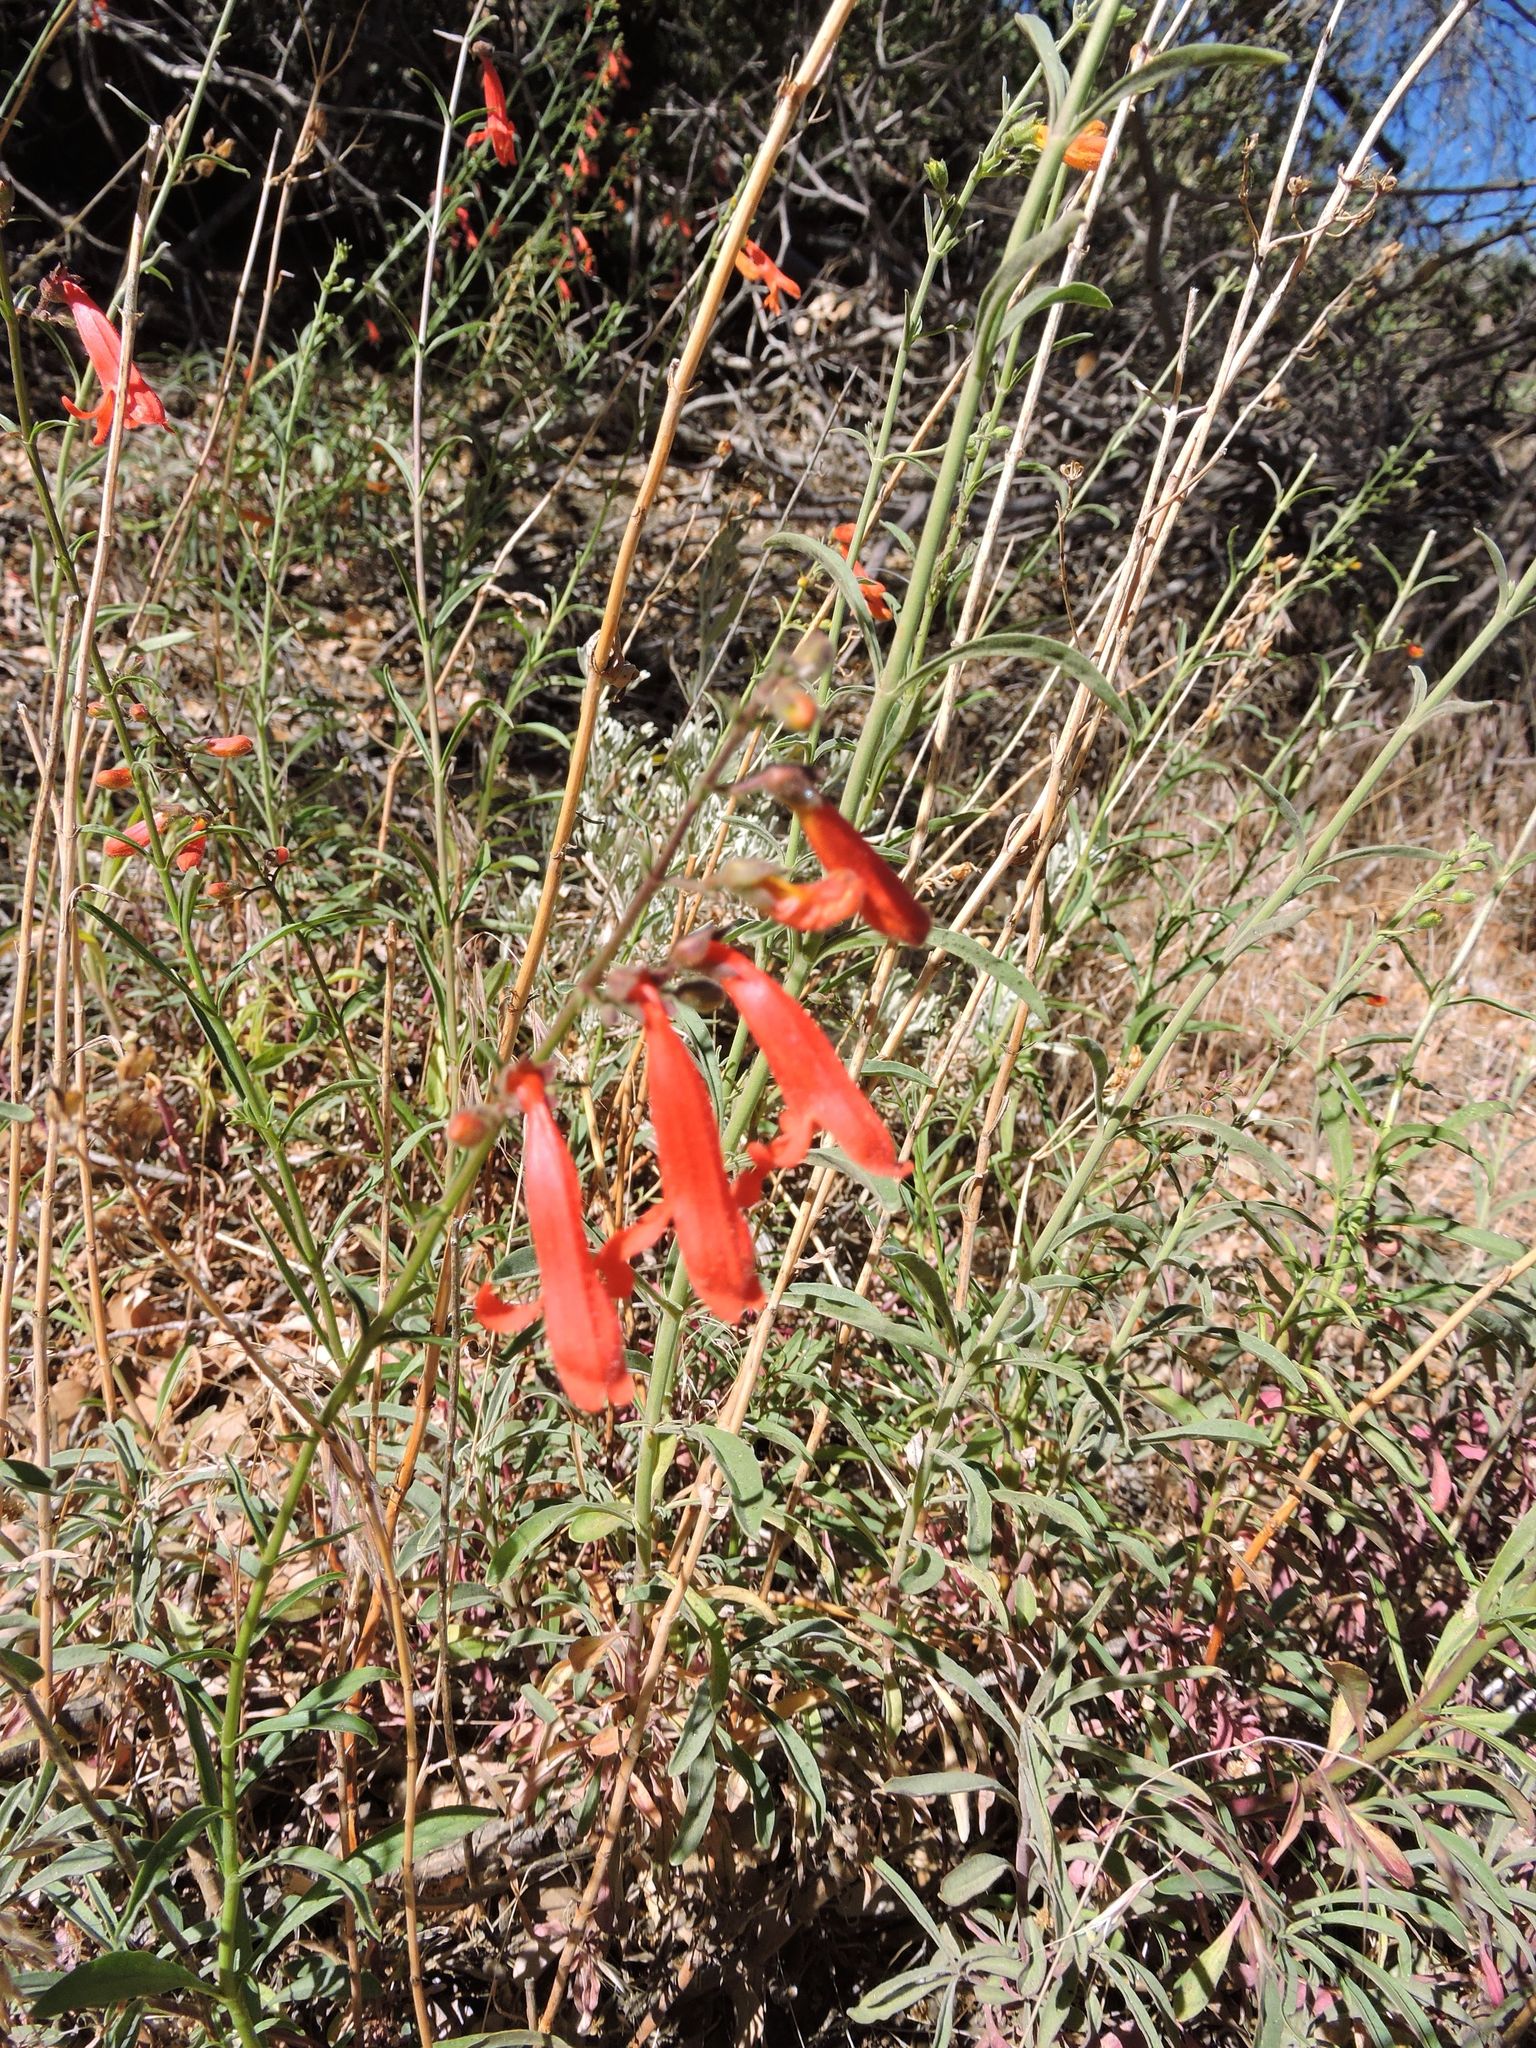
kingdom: Plantae
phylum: Tracheophyta
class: Magnoliopsida
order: Lamiales
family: Plantaginaceae
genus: Penstemon
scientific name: Penstemon rostriflorus
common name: Bridges's penstemon
